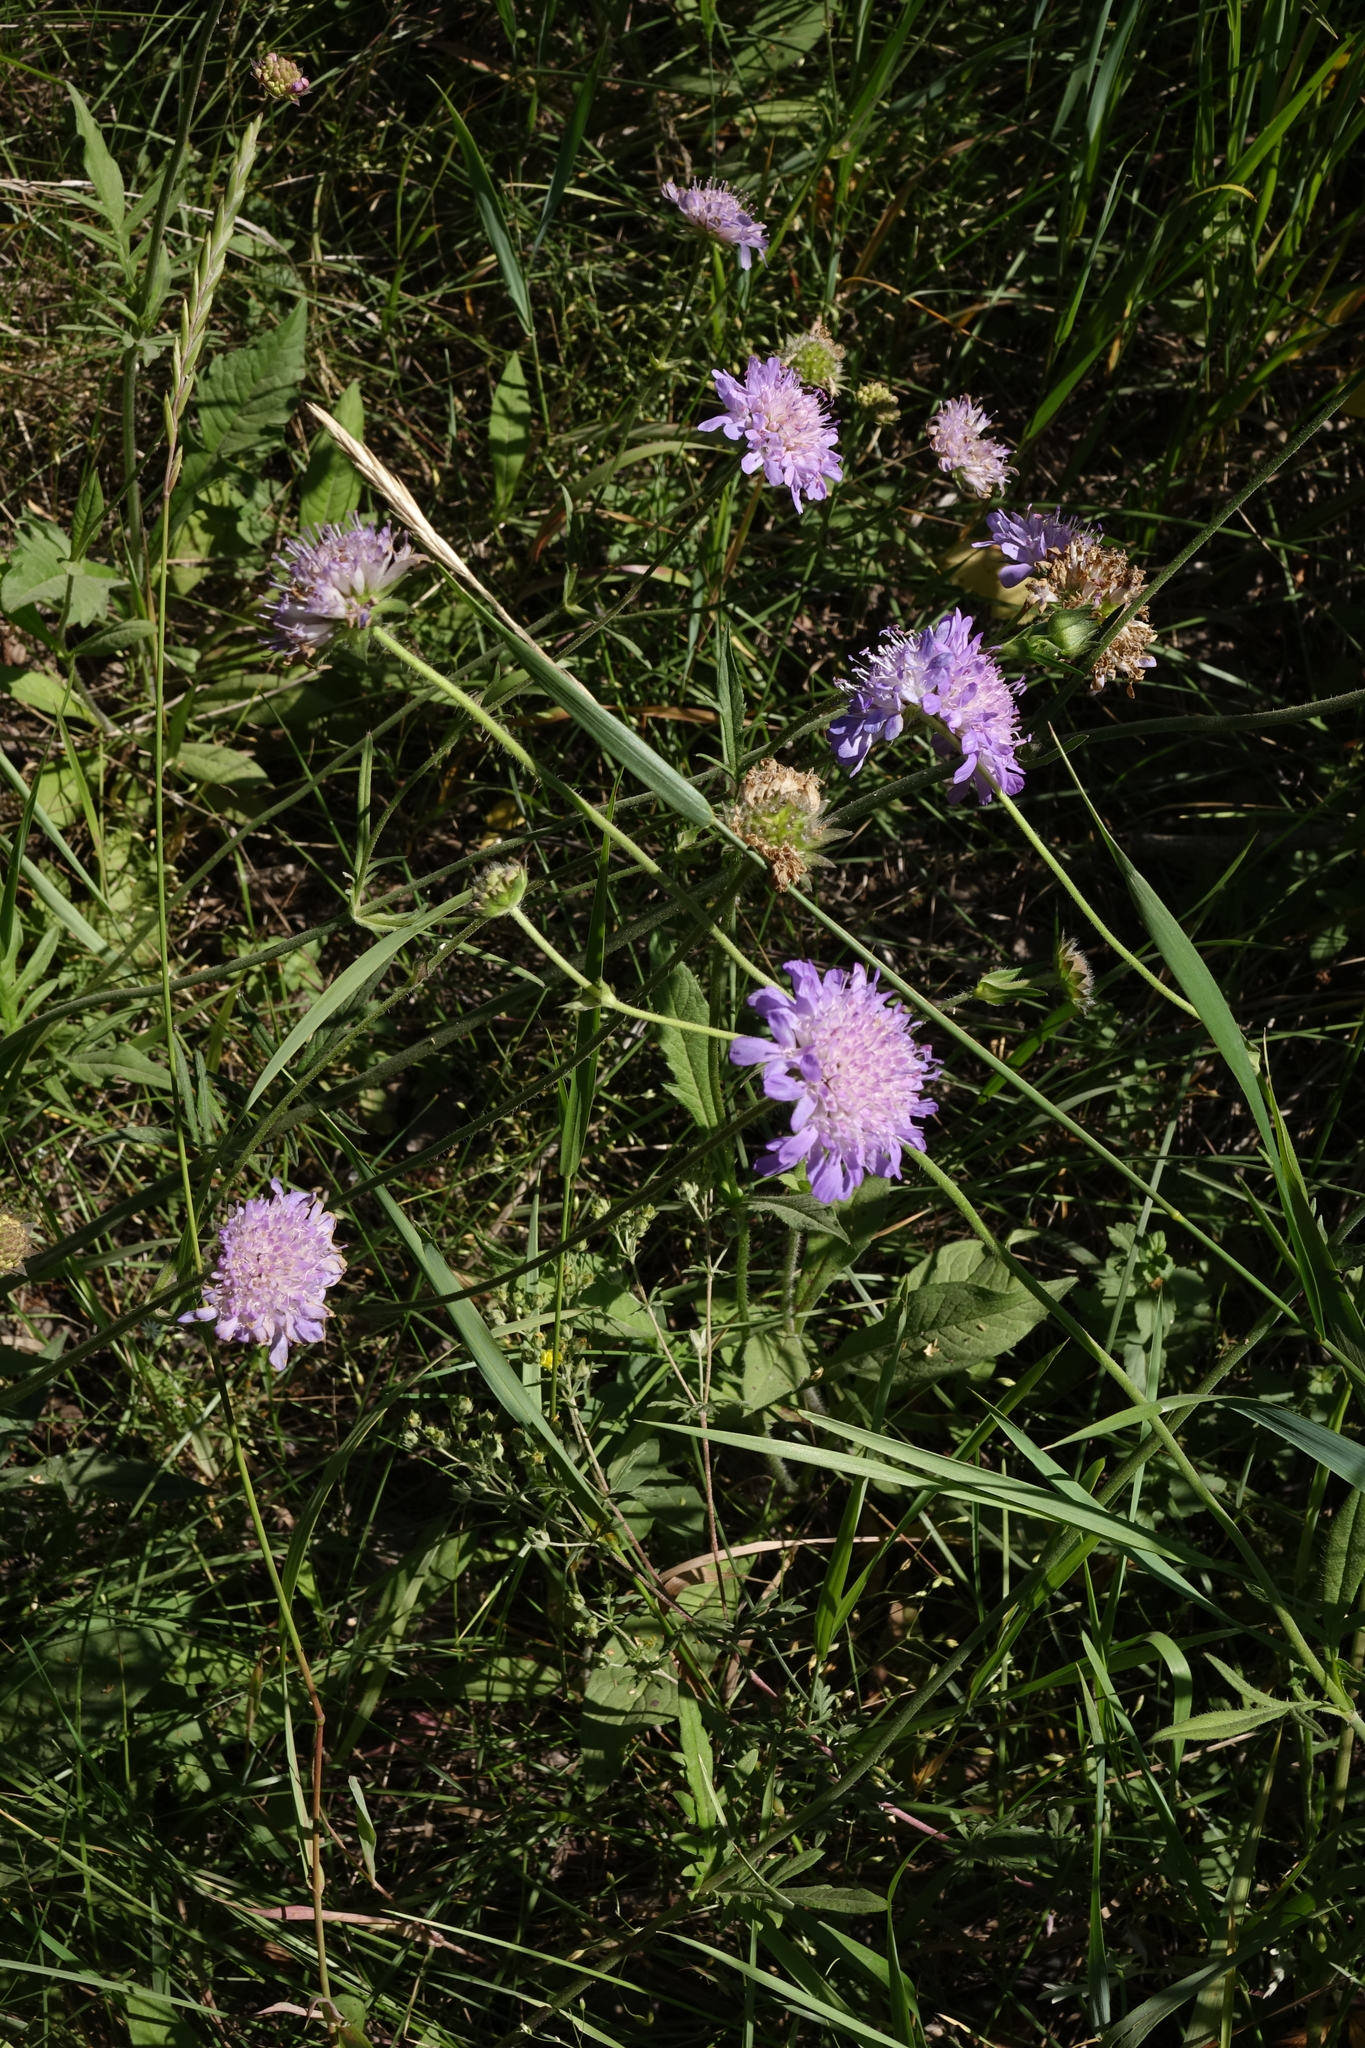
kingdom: Plantae
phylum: Tracheophyta
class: Magnoliopsida
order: Dipsacales
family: Caprifoliaceae
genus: Knautia
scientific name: Knautia arvensis
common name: Field scabiosa
